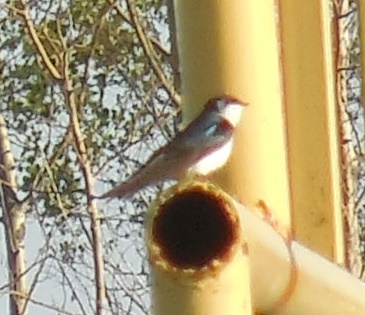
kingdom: Animalia
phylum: Chordata
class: Aves
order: Passeriformes
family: Hirundinidae
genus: Tachycineta
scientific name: Tachycineta bicolor
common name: Tree swallow
